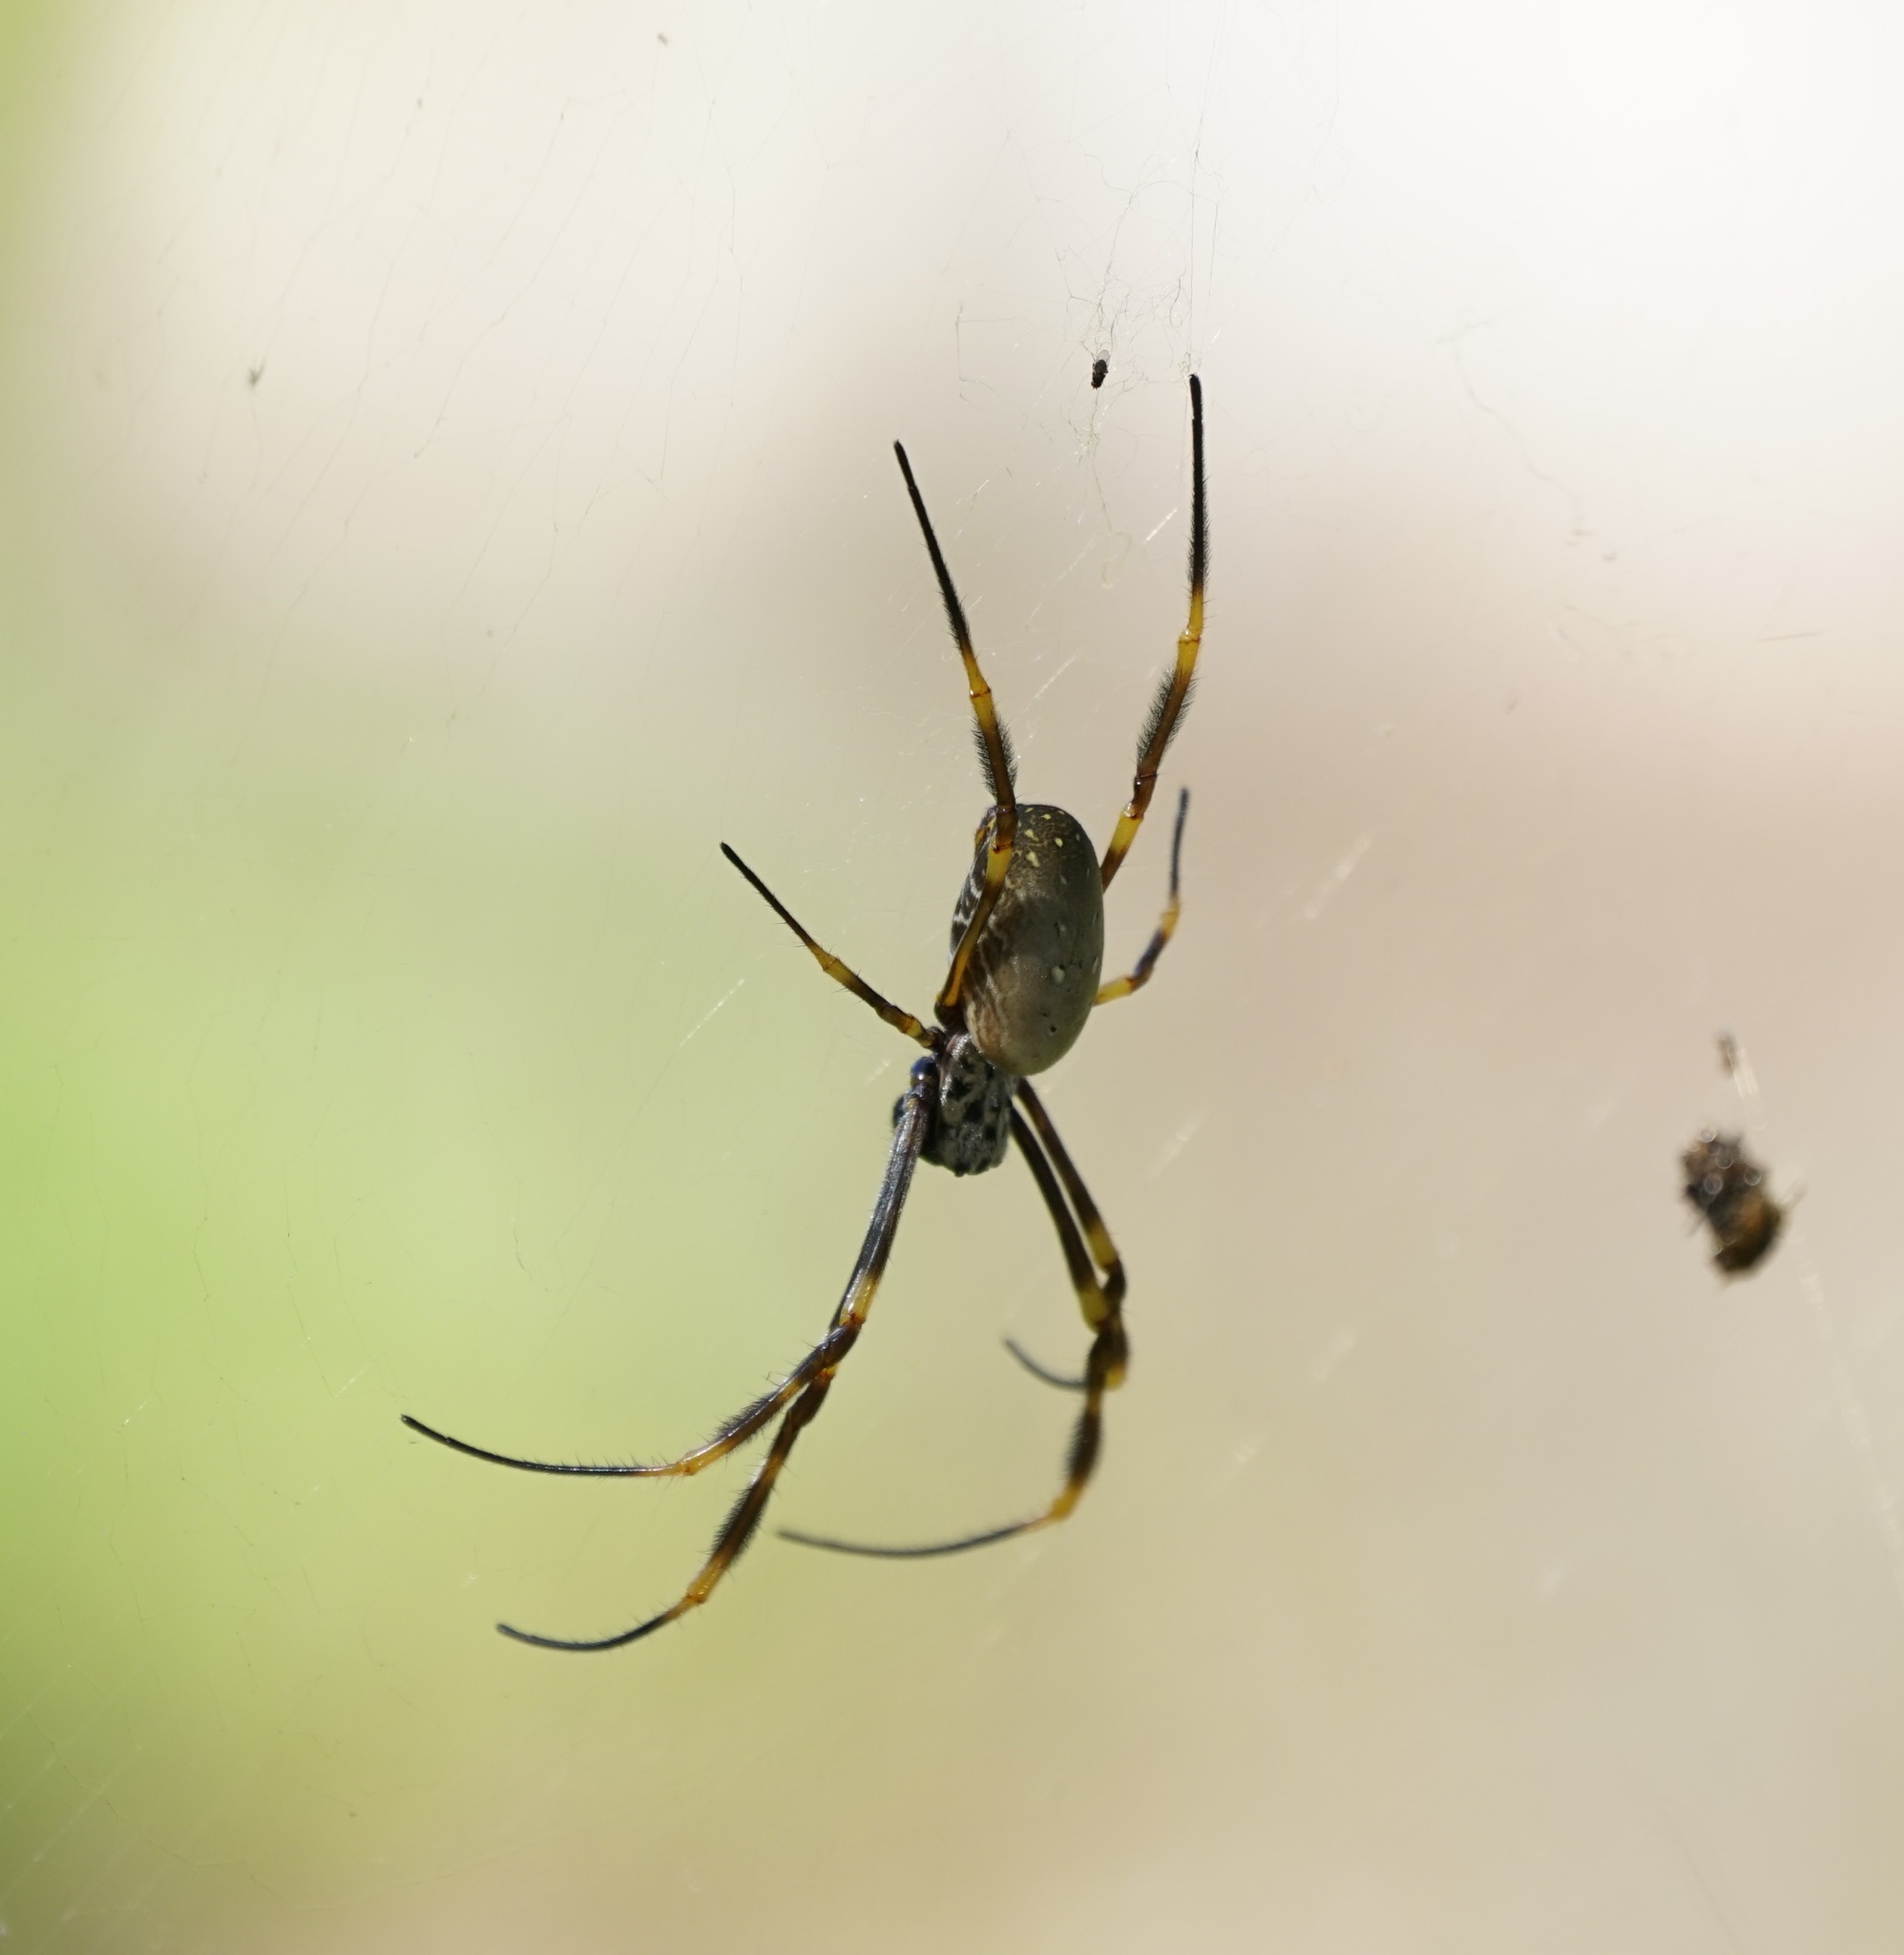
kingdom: Animalia
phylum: Arthropoda
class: Arachnida
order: Araneae
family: Araneidae
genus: Trichonephila
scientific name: Trichonephila plumipes
